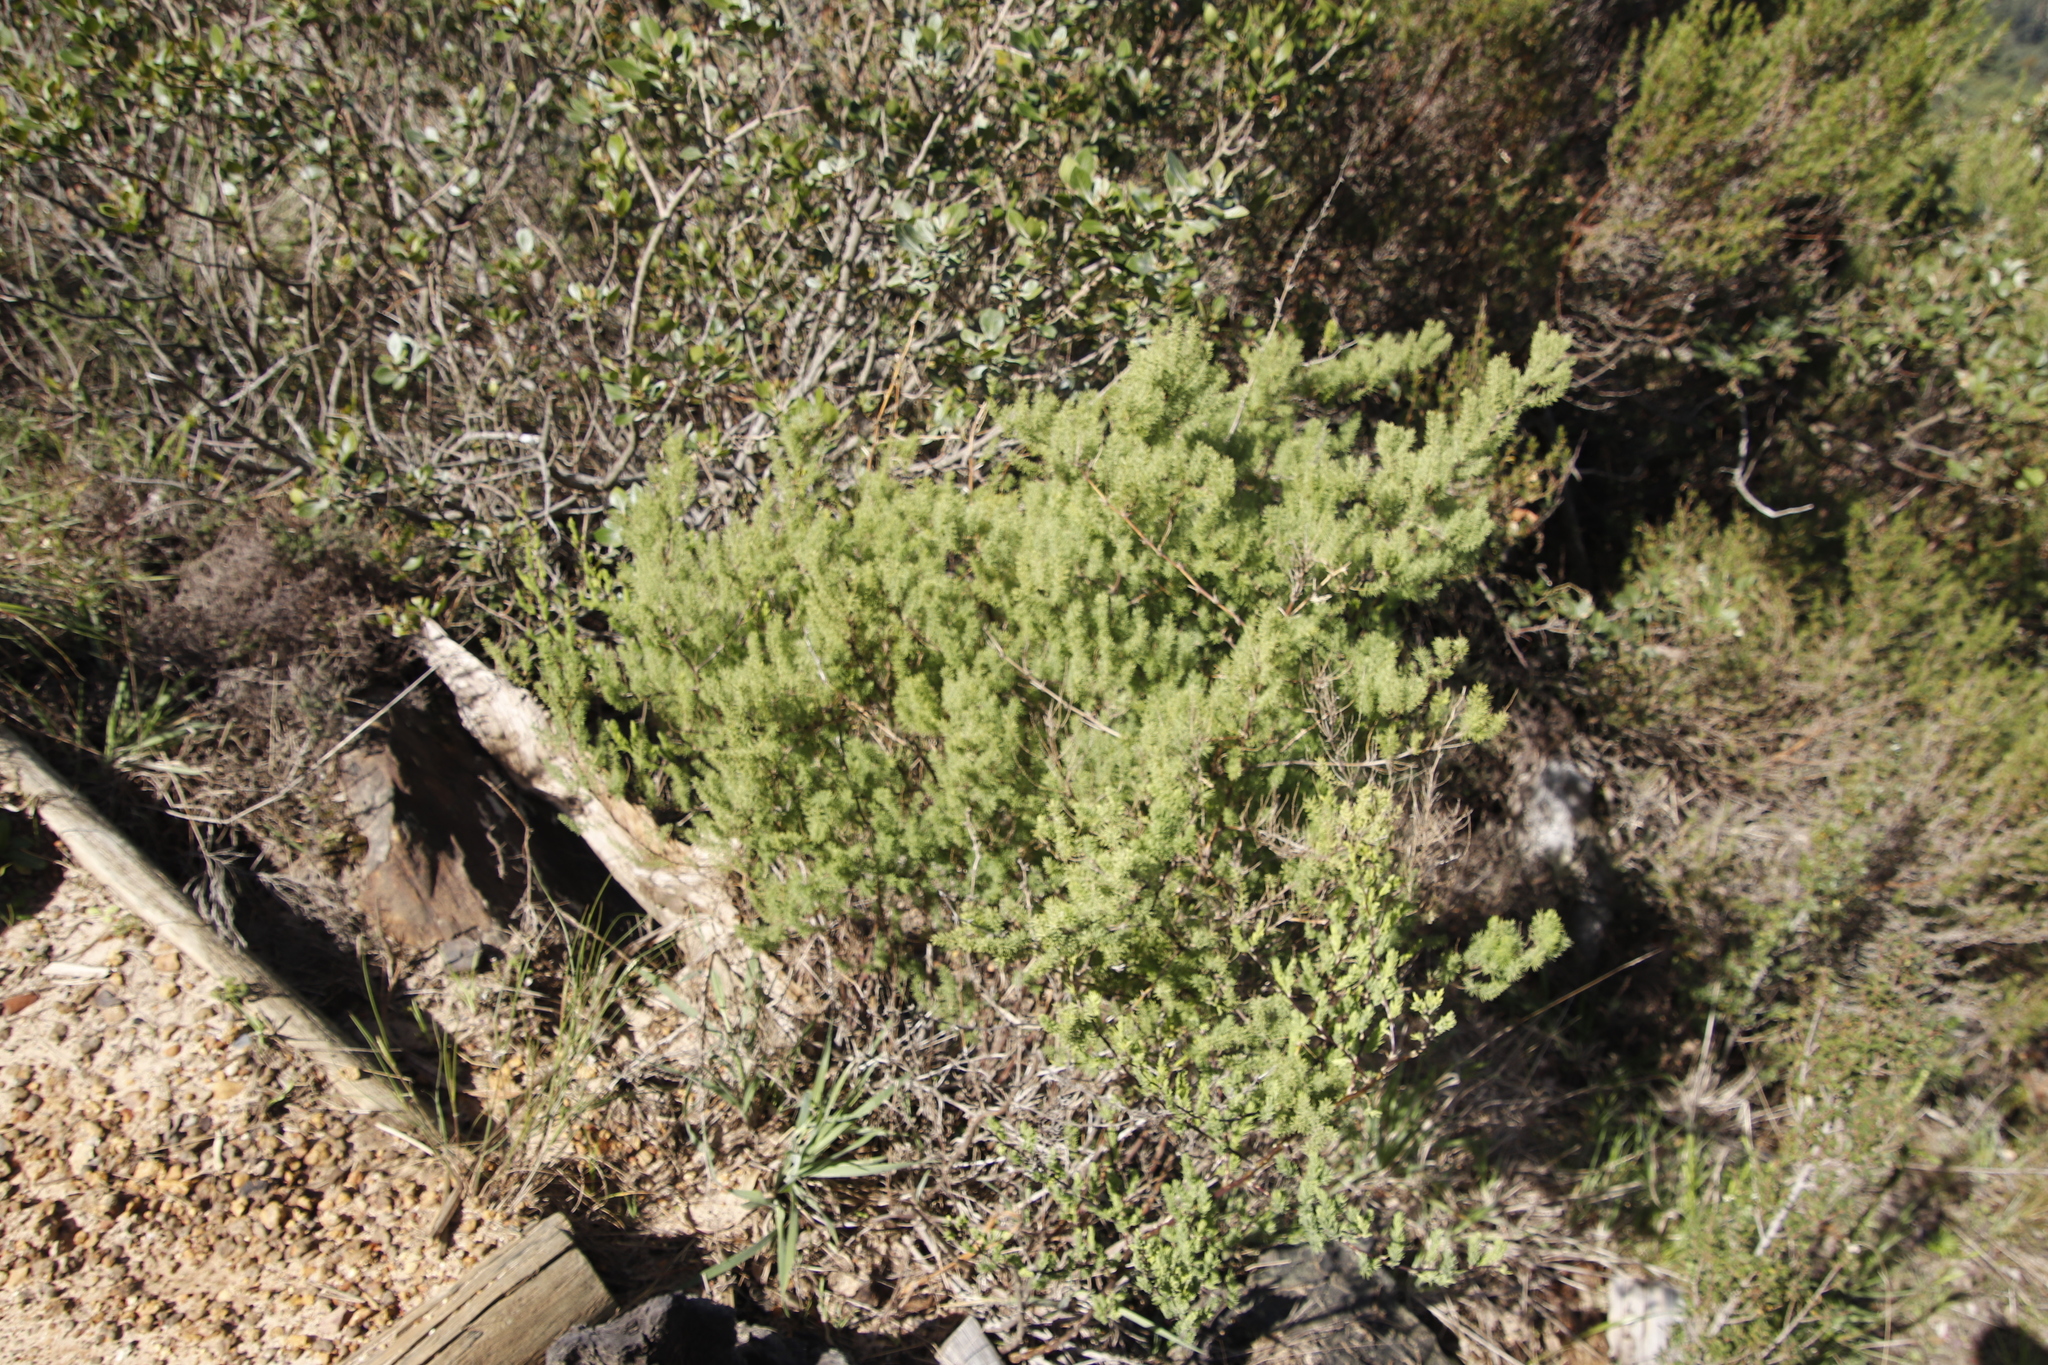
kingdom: Plantae
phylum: Tracheophyta
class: Liliopsida
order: Asparagales
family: Asparagaceae
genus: Asparagus
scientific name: Asparagus rubicundus
